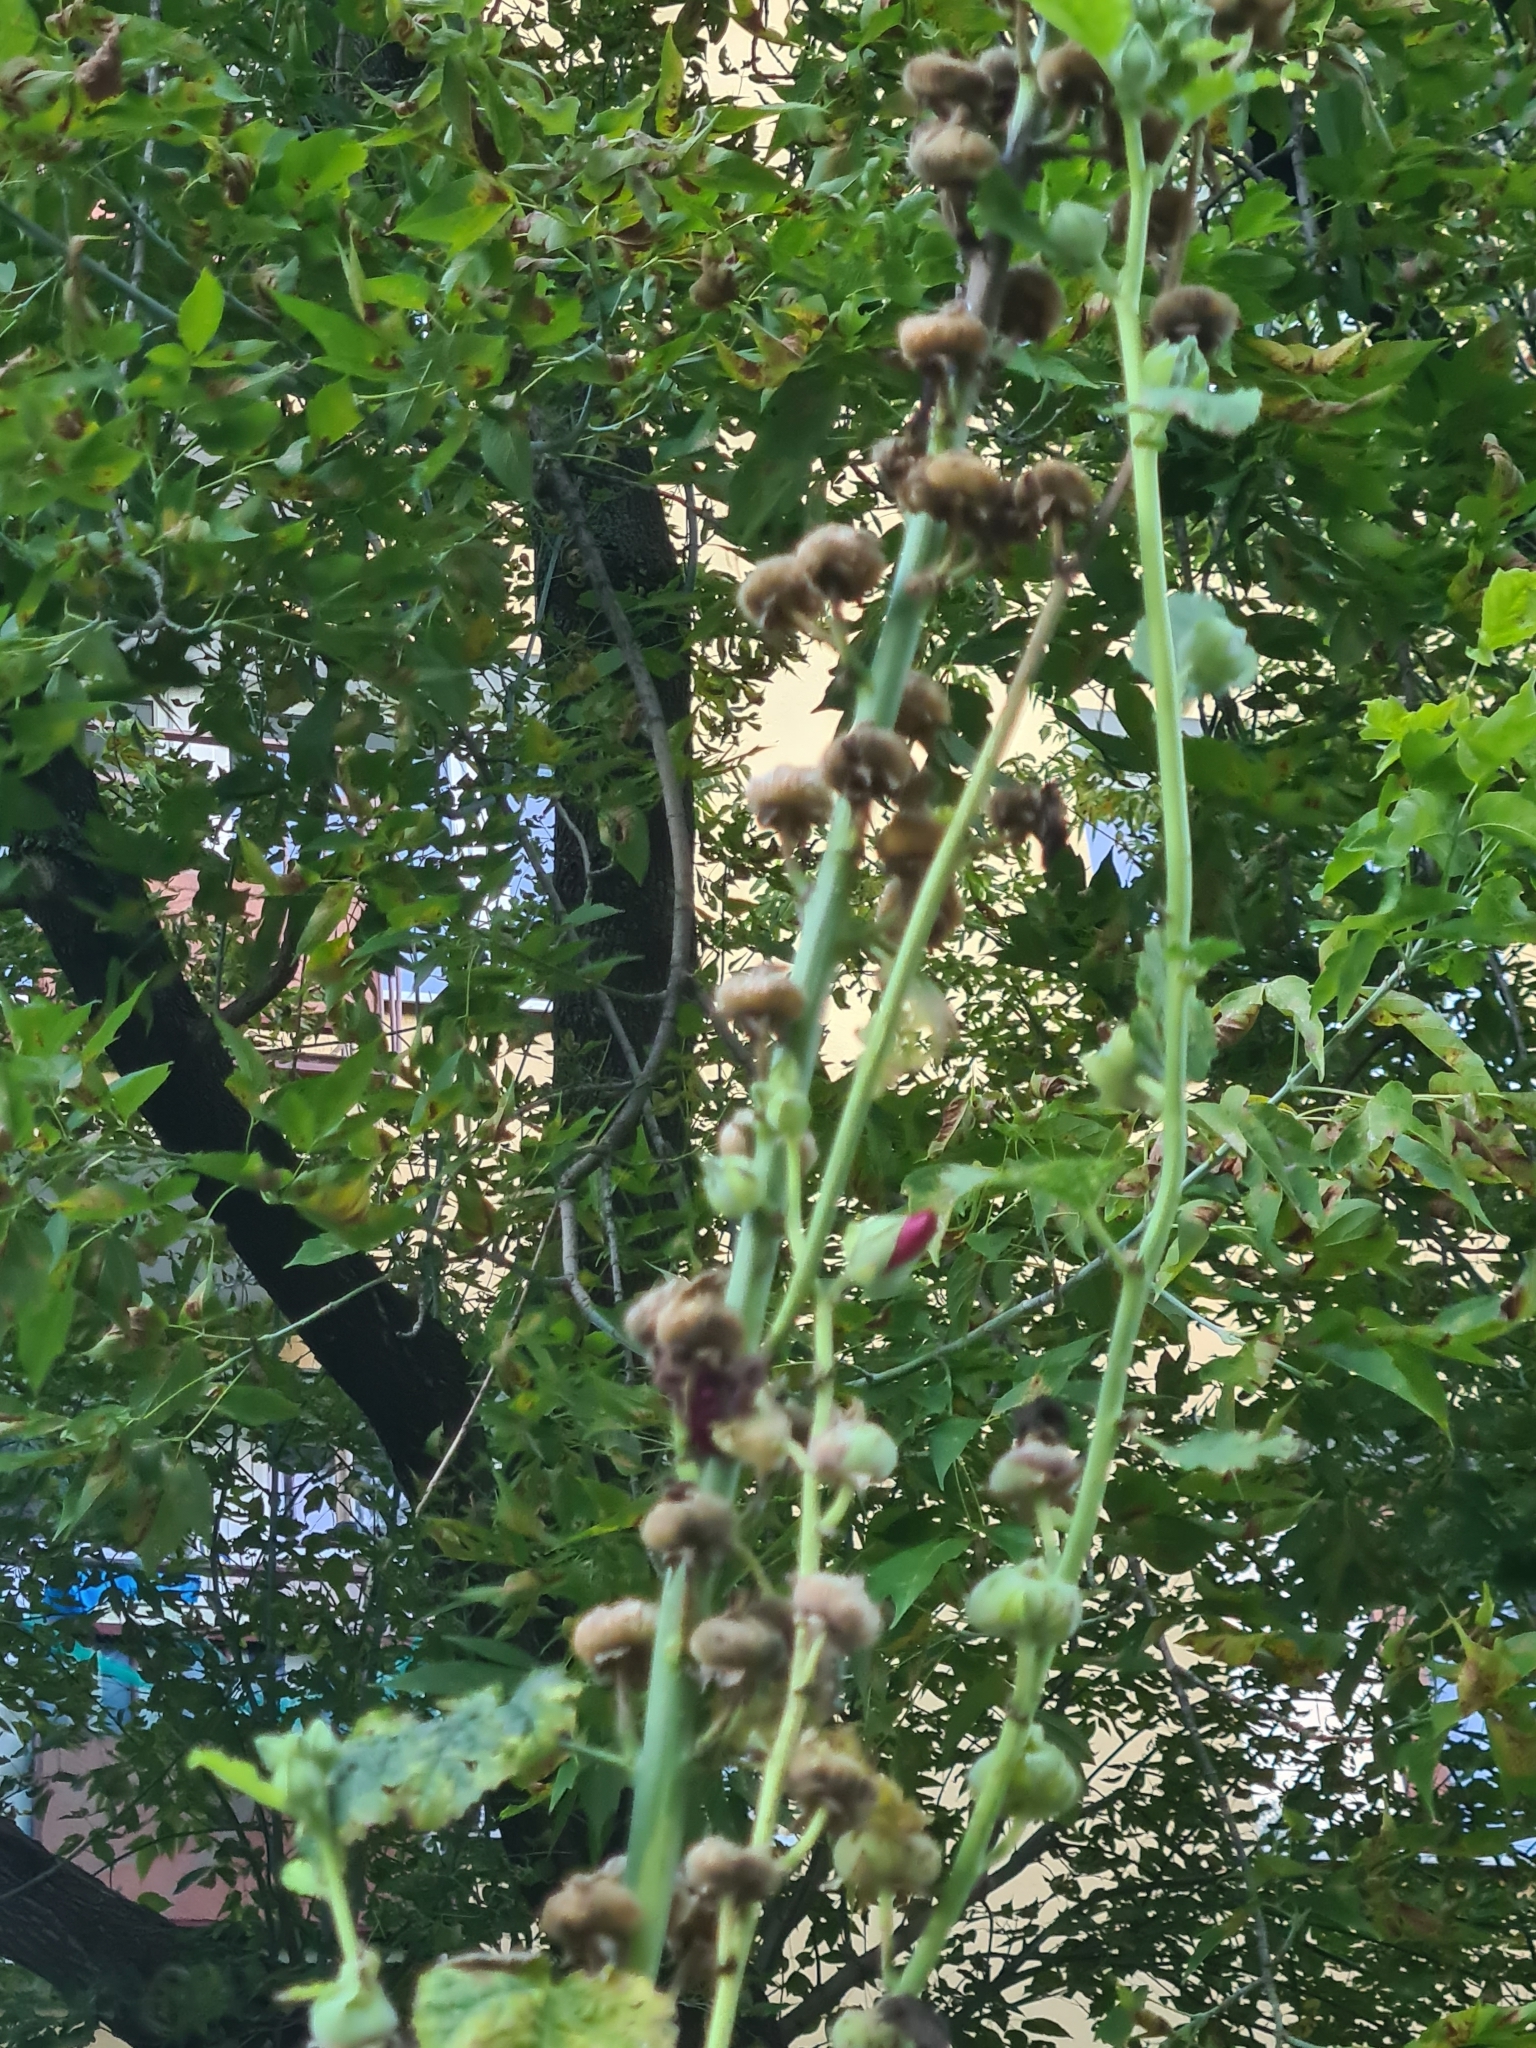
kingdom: Plantae
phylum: Tracheophyta
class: Magnoliopsida
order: Malvales
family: Malvaceae
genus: Alcea
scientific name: Alcea rosea
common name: Hollyhock
